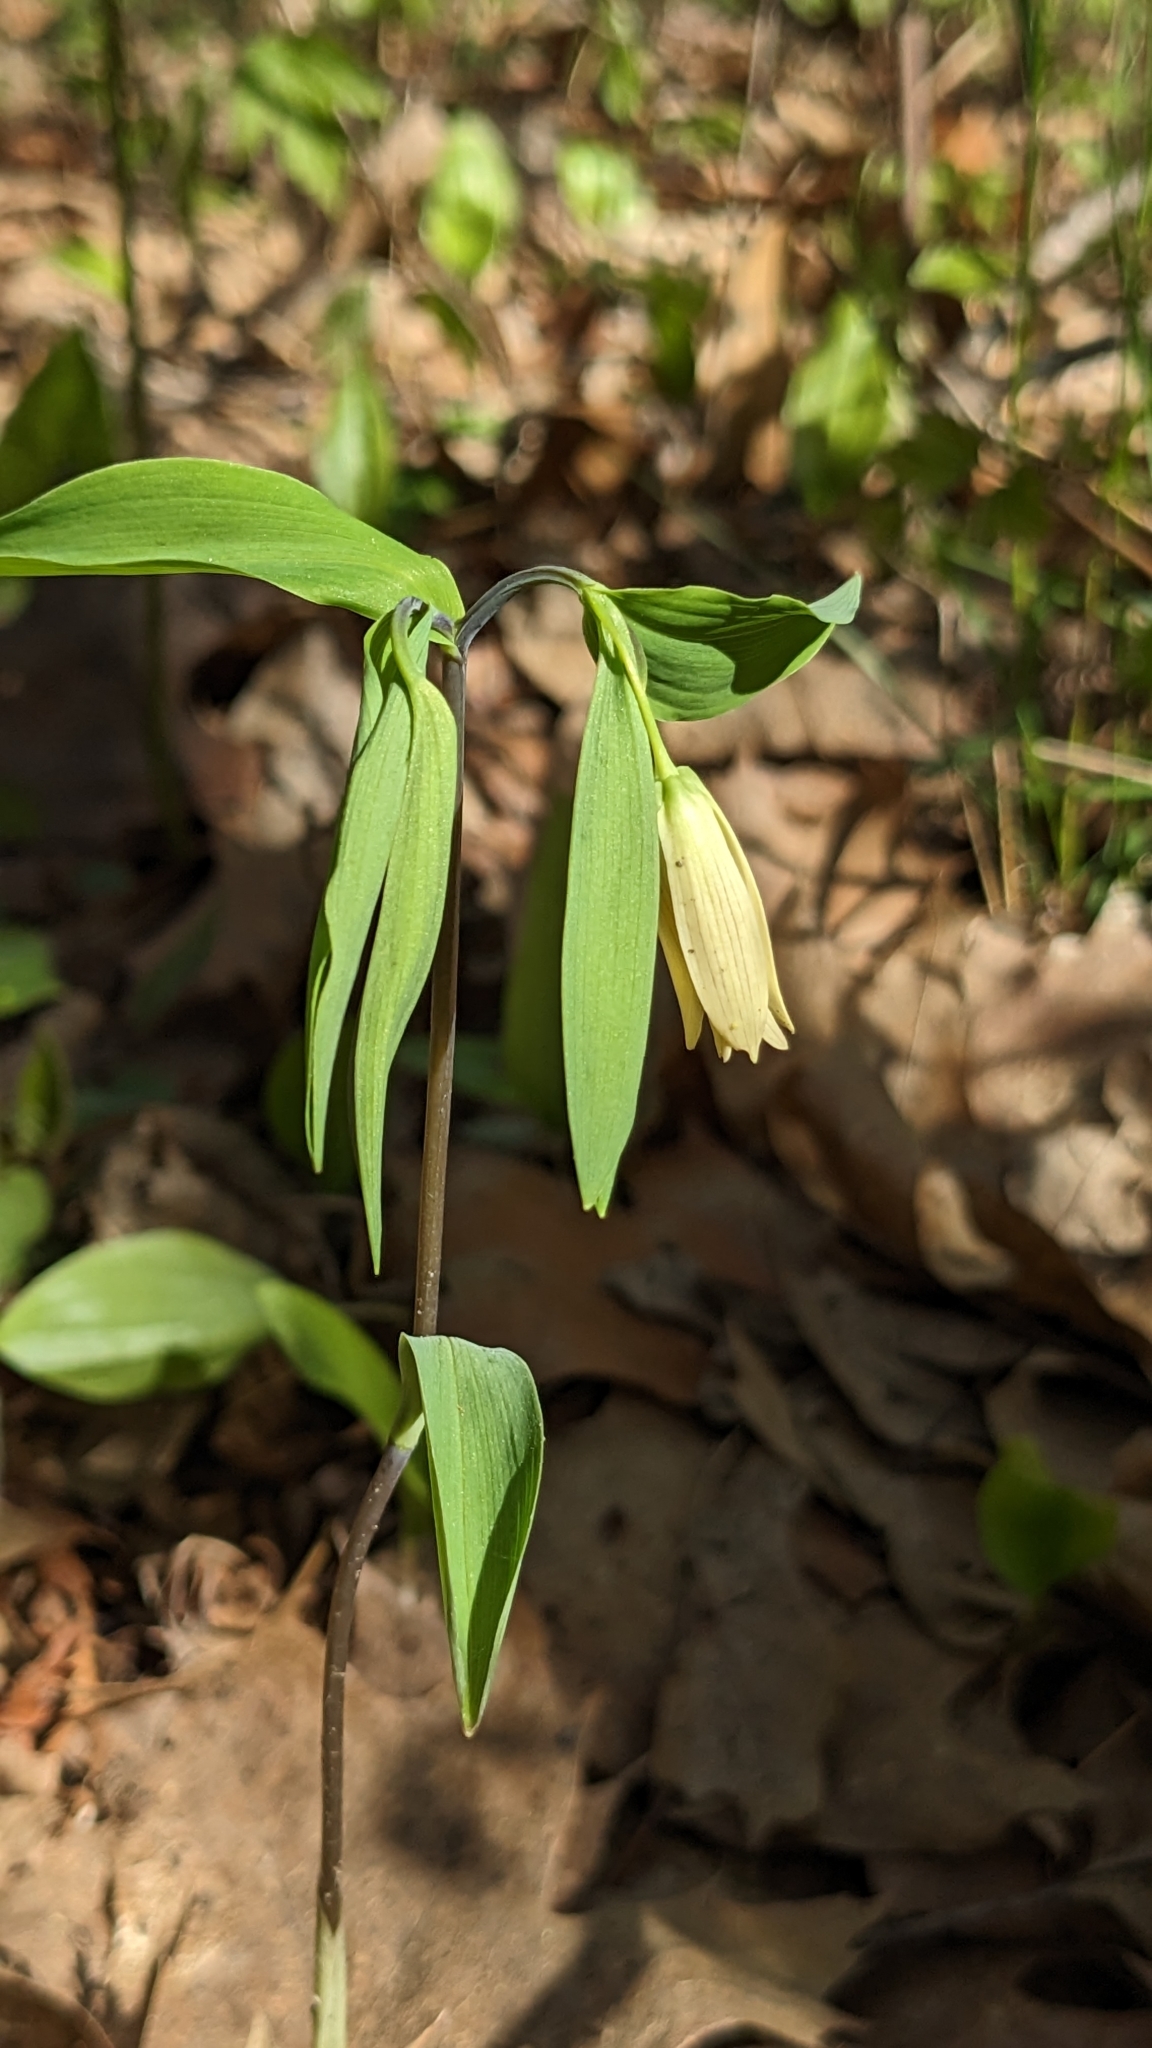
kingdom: Plantae
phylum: Tracheophyta
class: Liliopsida
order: Liliales
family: Colchicaceae
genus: Uvularia
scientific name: Uvularia sessilifolia
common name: Straw-lily
